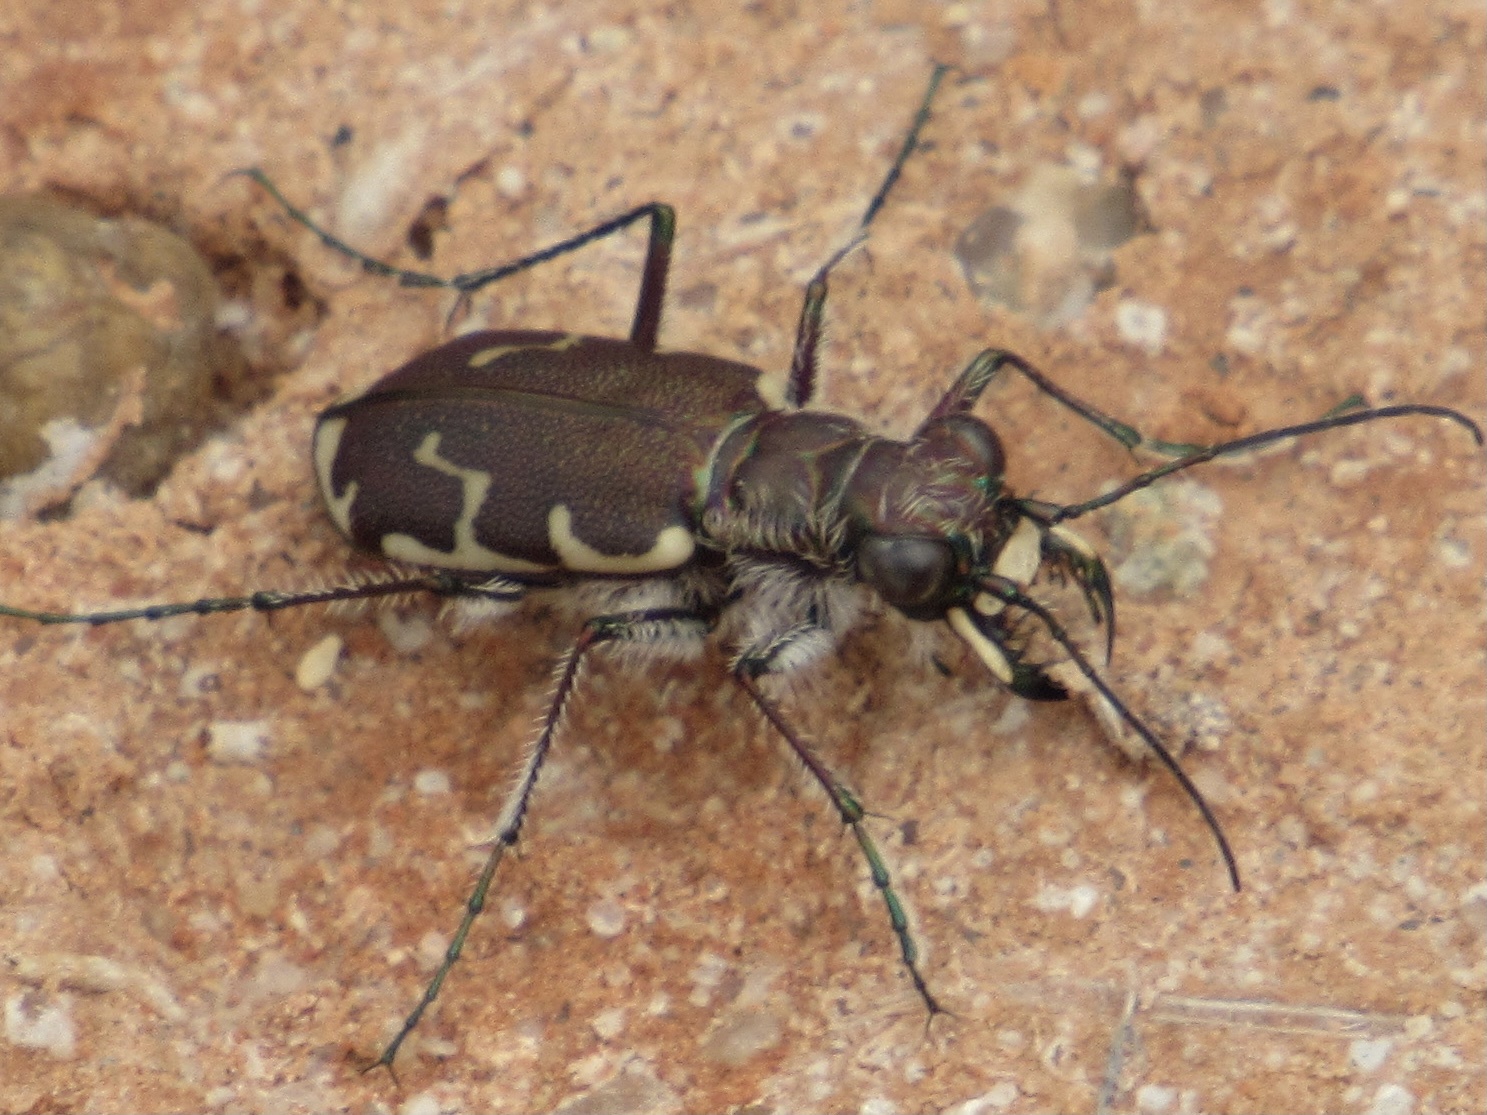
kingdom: Animalia
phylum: Arthropoda
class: Insecta
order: Coleoptera
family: Carabidae
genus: Cicindela
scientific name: Cicindela repanda
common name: Bronzed tiger beetle
